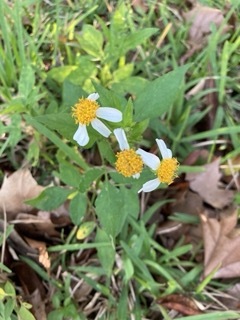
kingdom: Plantae
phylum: Tracheophyta
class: Magnoliopsida
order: Asterales
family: Asteraceae
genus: Bidens
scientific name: Bidens alba
